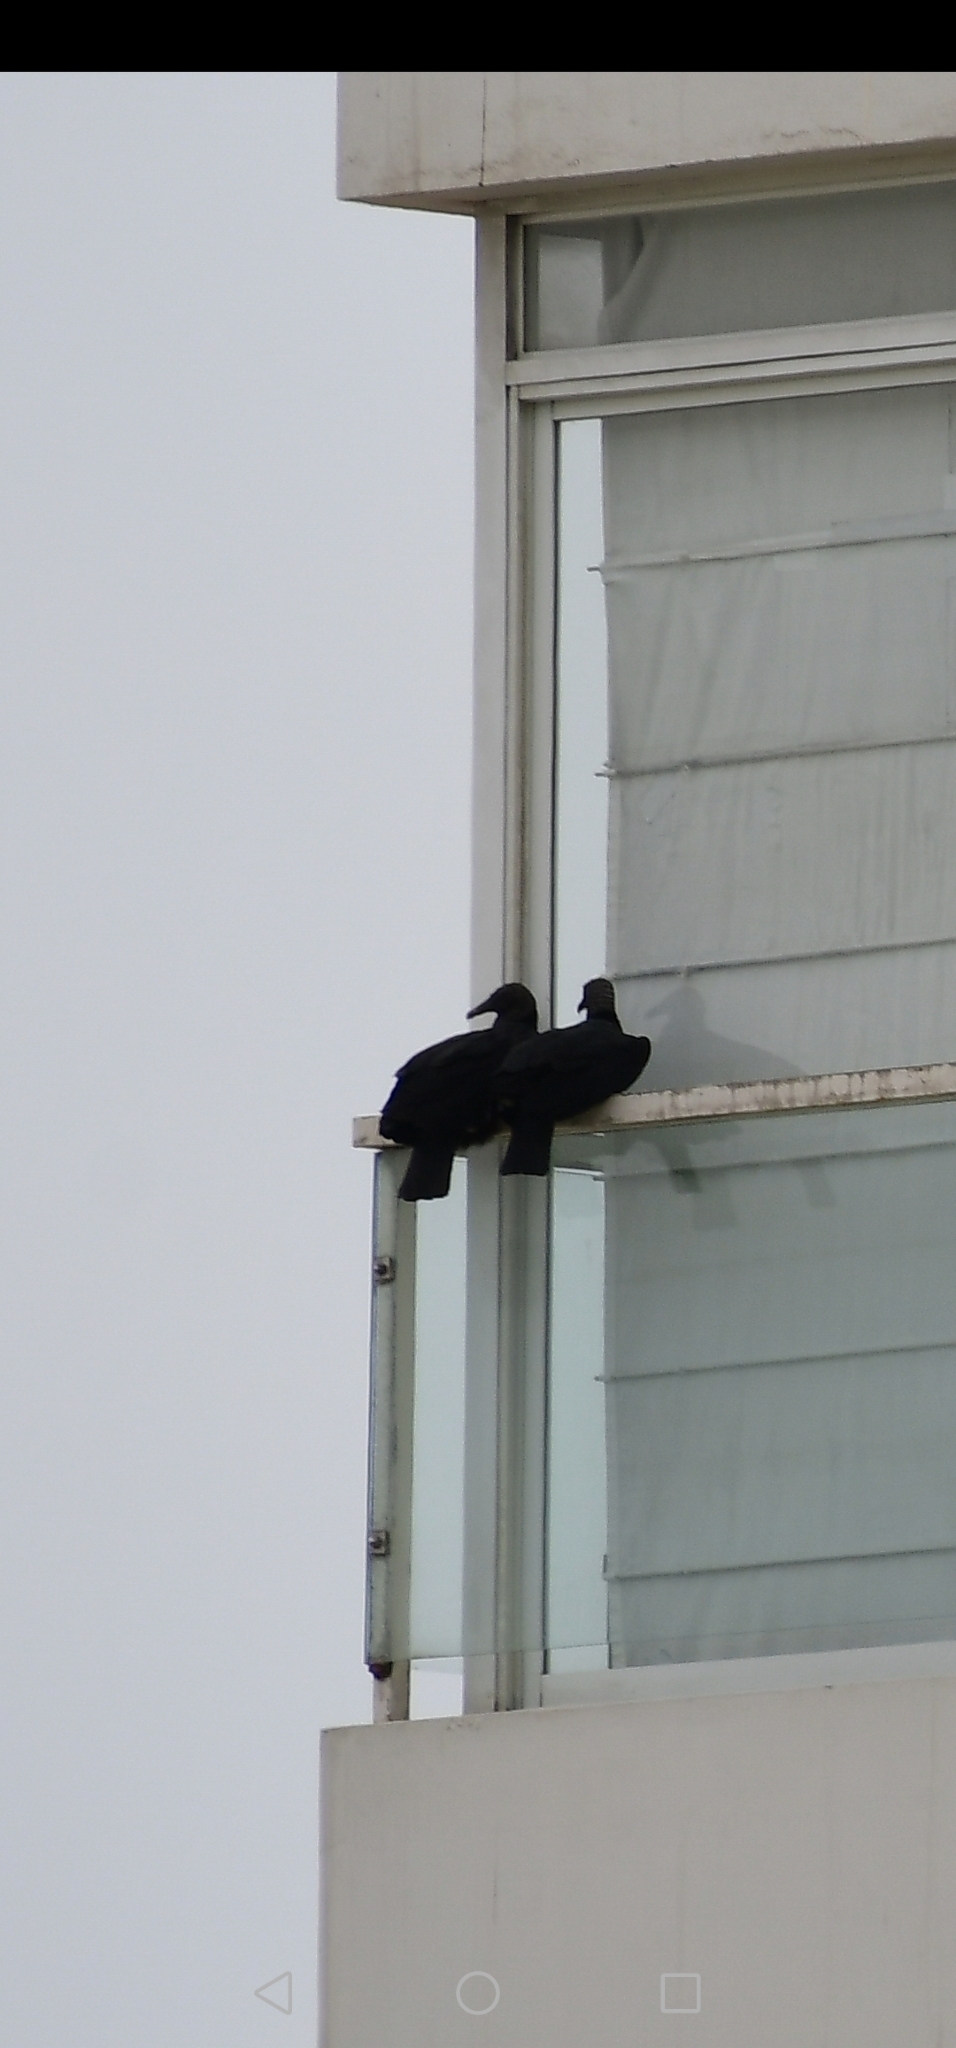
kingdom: Animalia
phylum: Chordata
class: Aves
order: Accipitriformes
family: Cathartidae
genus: Coragyps
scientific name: Coragyps atratus
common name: Black vulture
